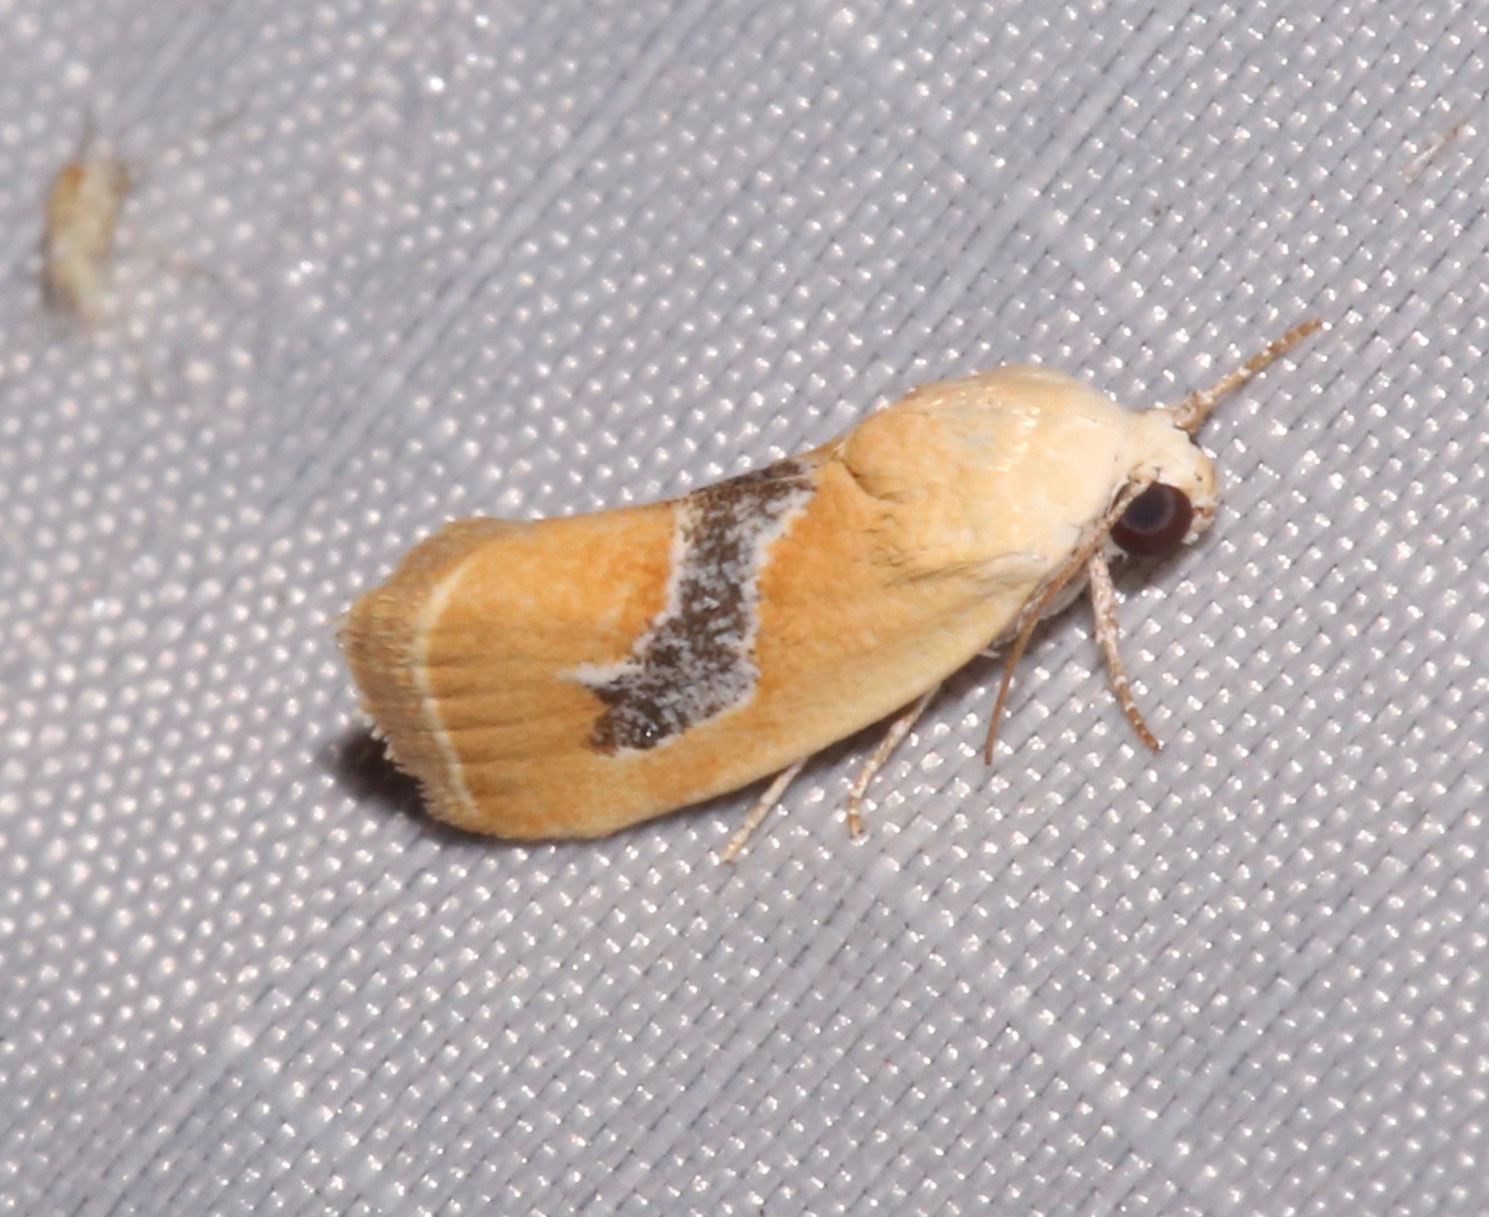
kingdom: Animalia
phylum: Arthropoda
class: Insecta
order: Lepidoptera
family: Noctuidae
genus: Ponometia
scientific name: Ponometia venustula
